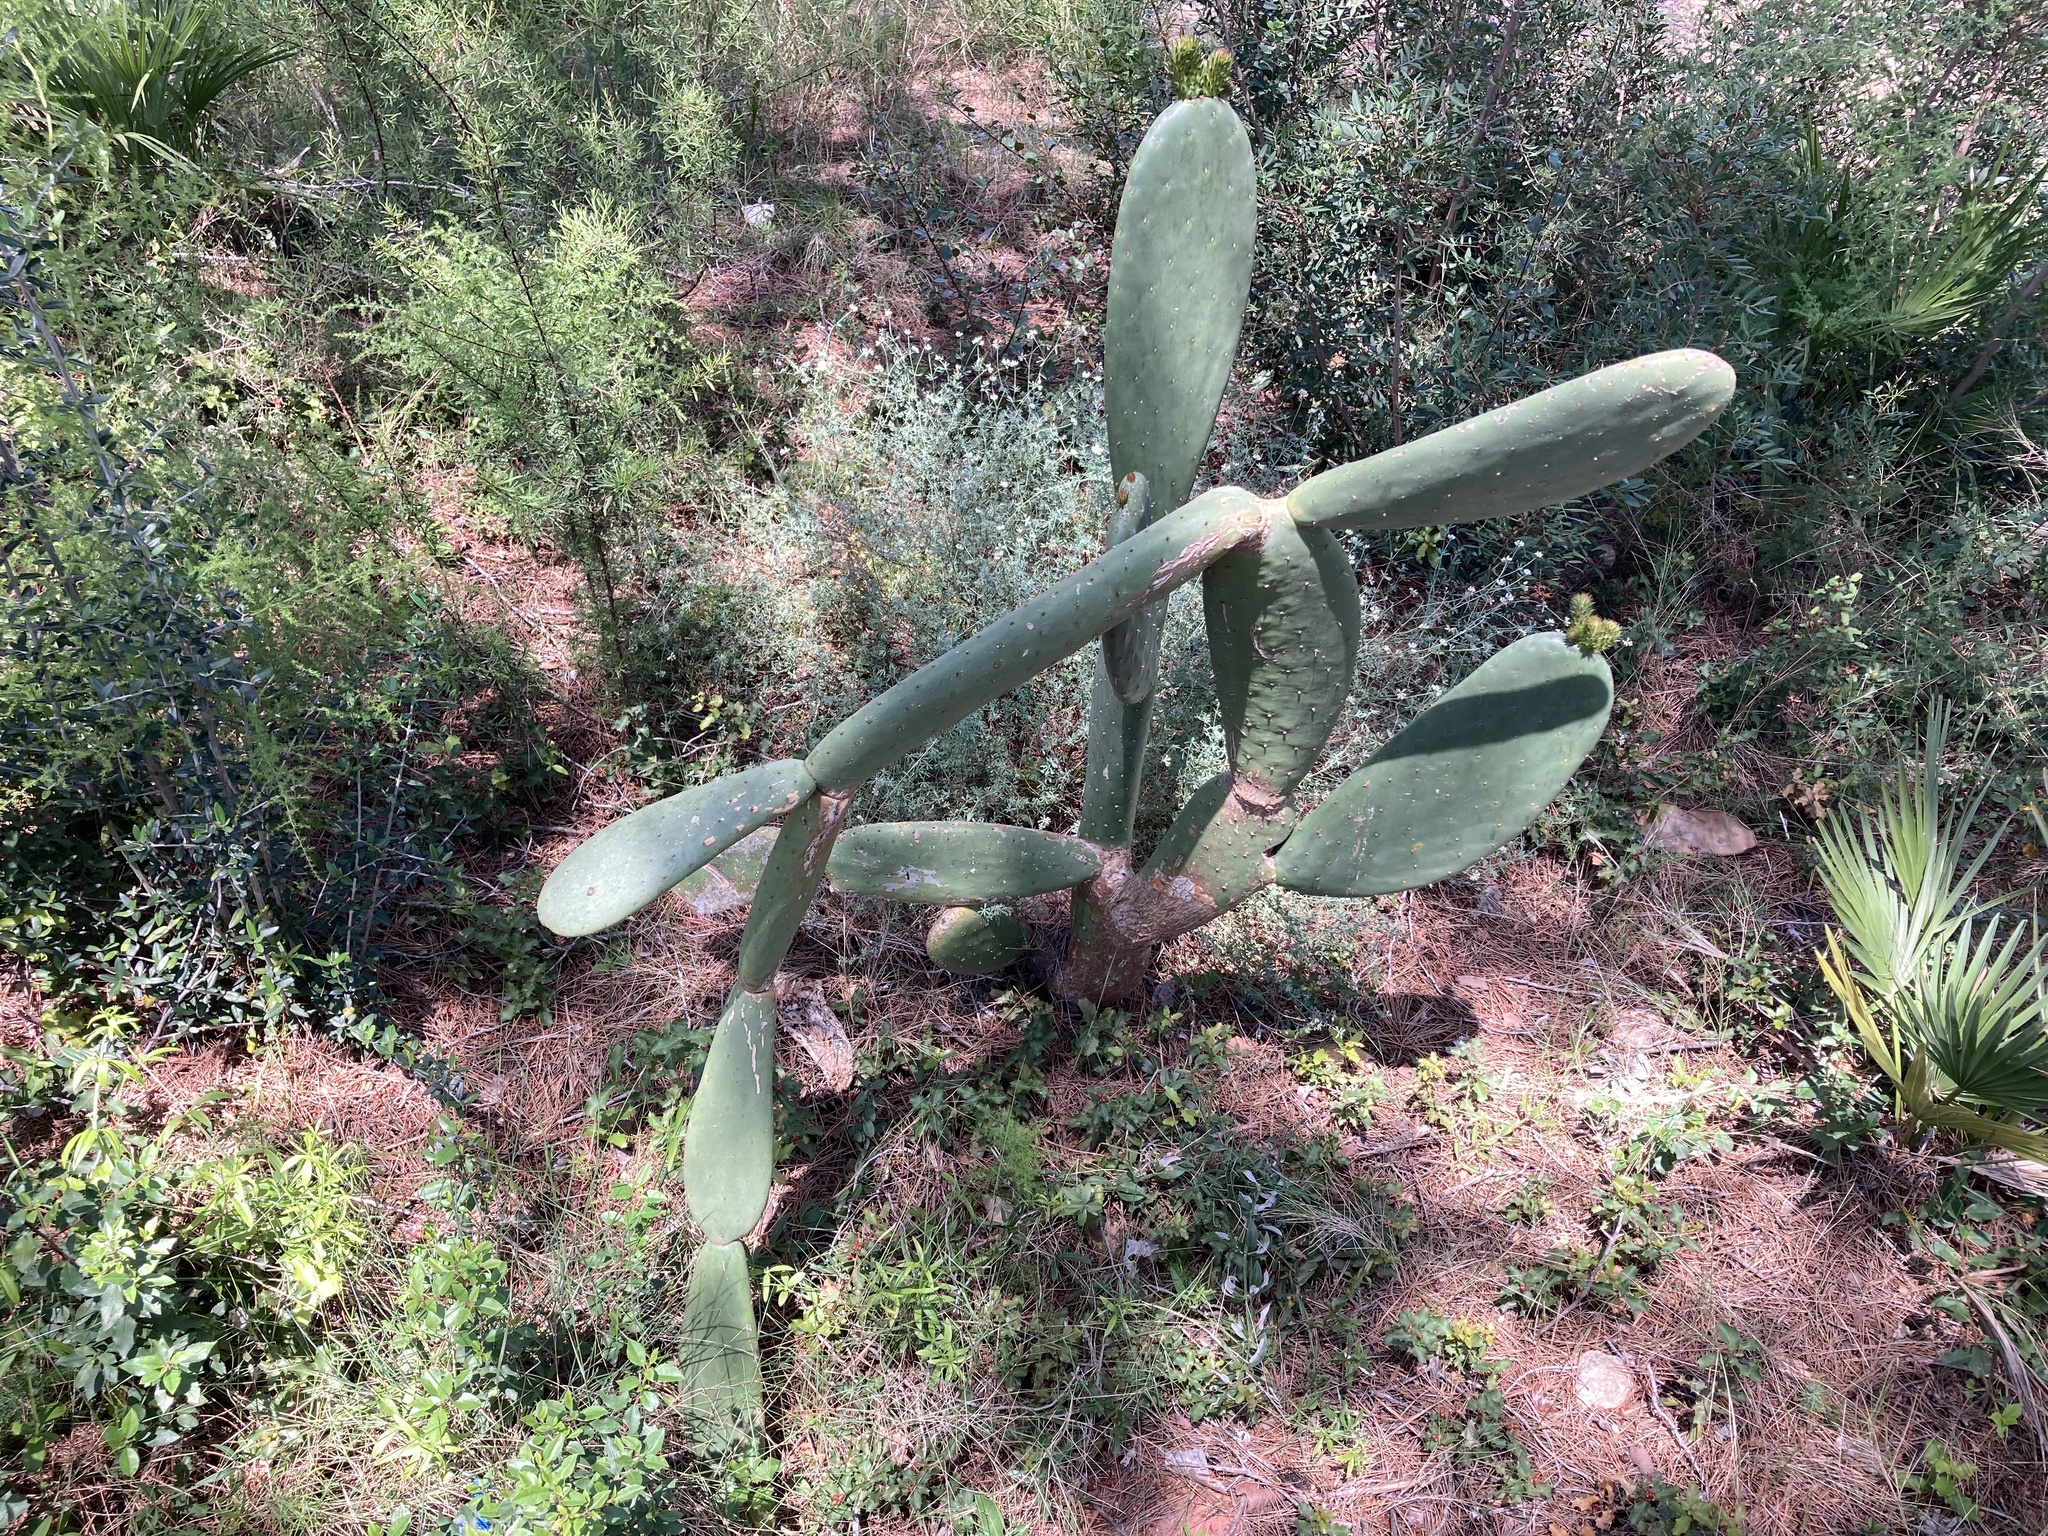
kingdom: Plantae
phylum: Tracheophyta
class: Magnoliopsida
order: Caryophyllales
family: Cactaceae
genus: Opuntia
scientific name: Opuntia ficus-indica
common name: Barbary fig
